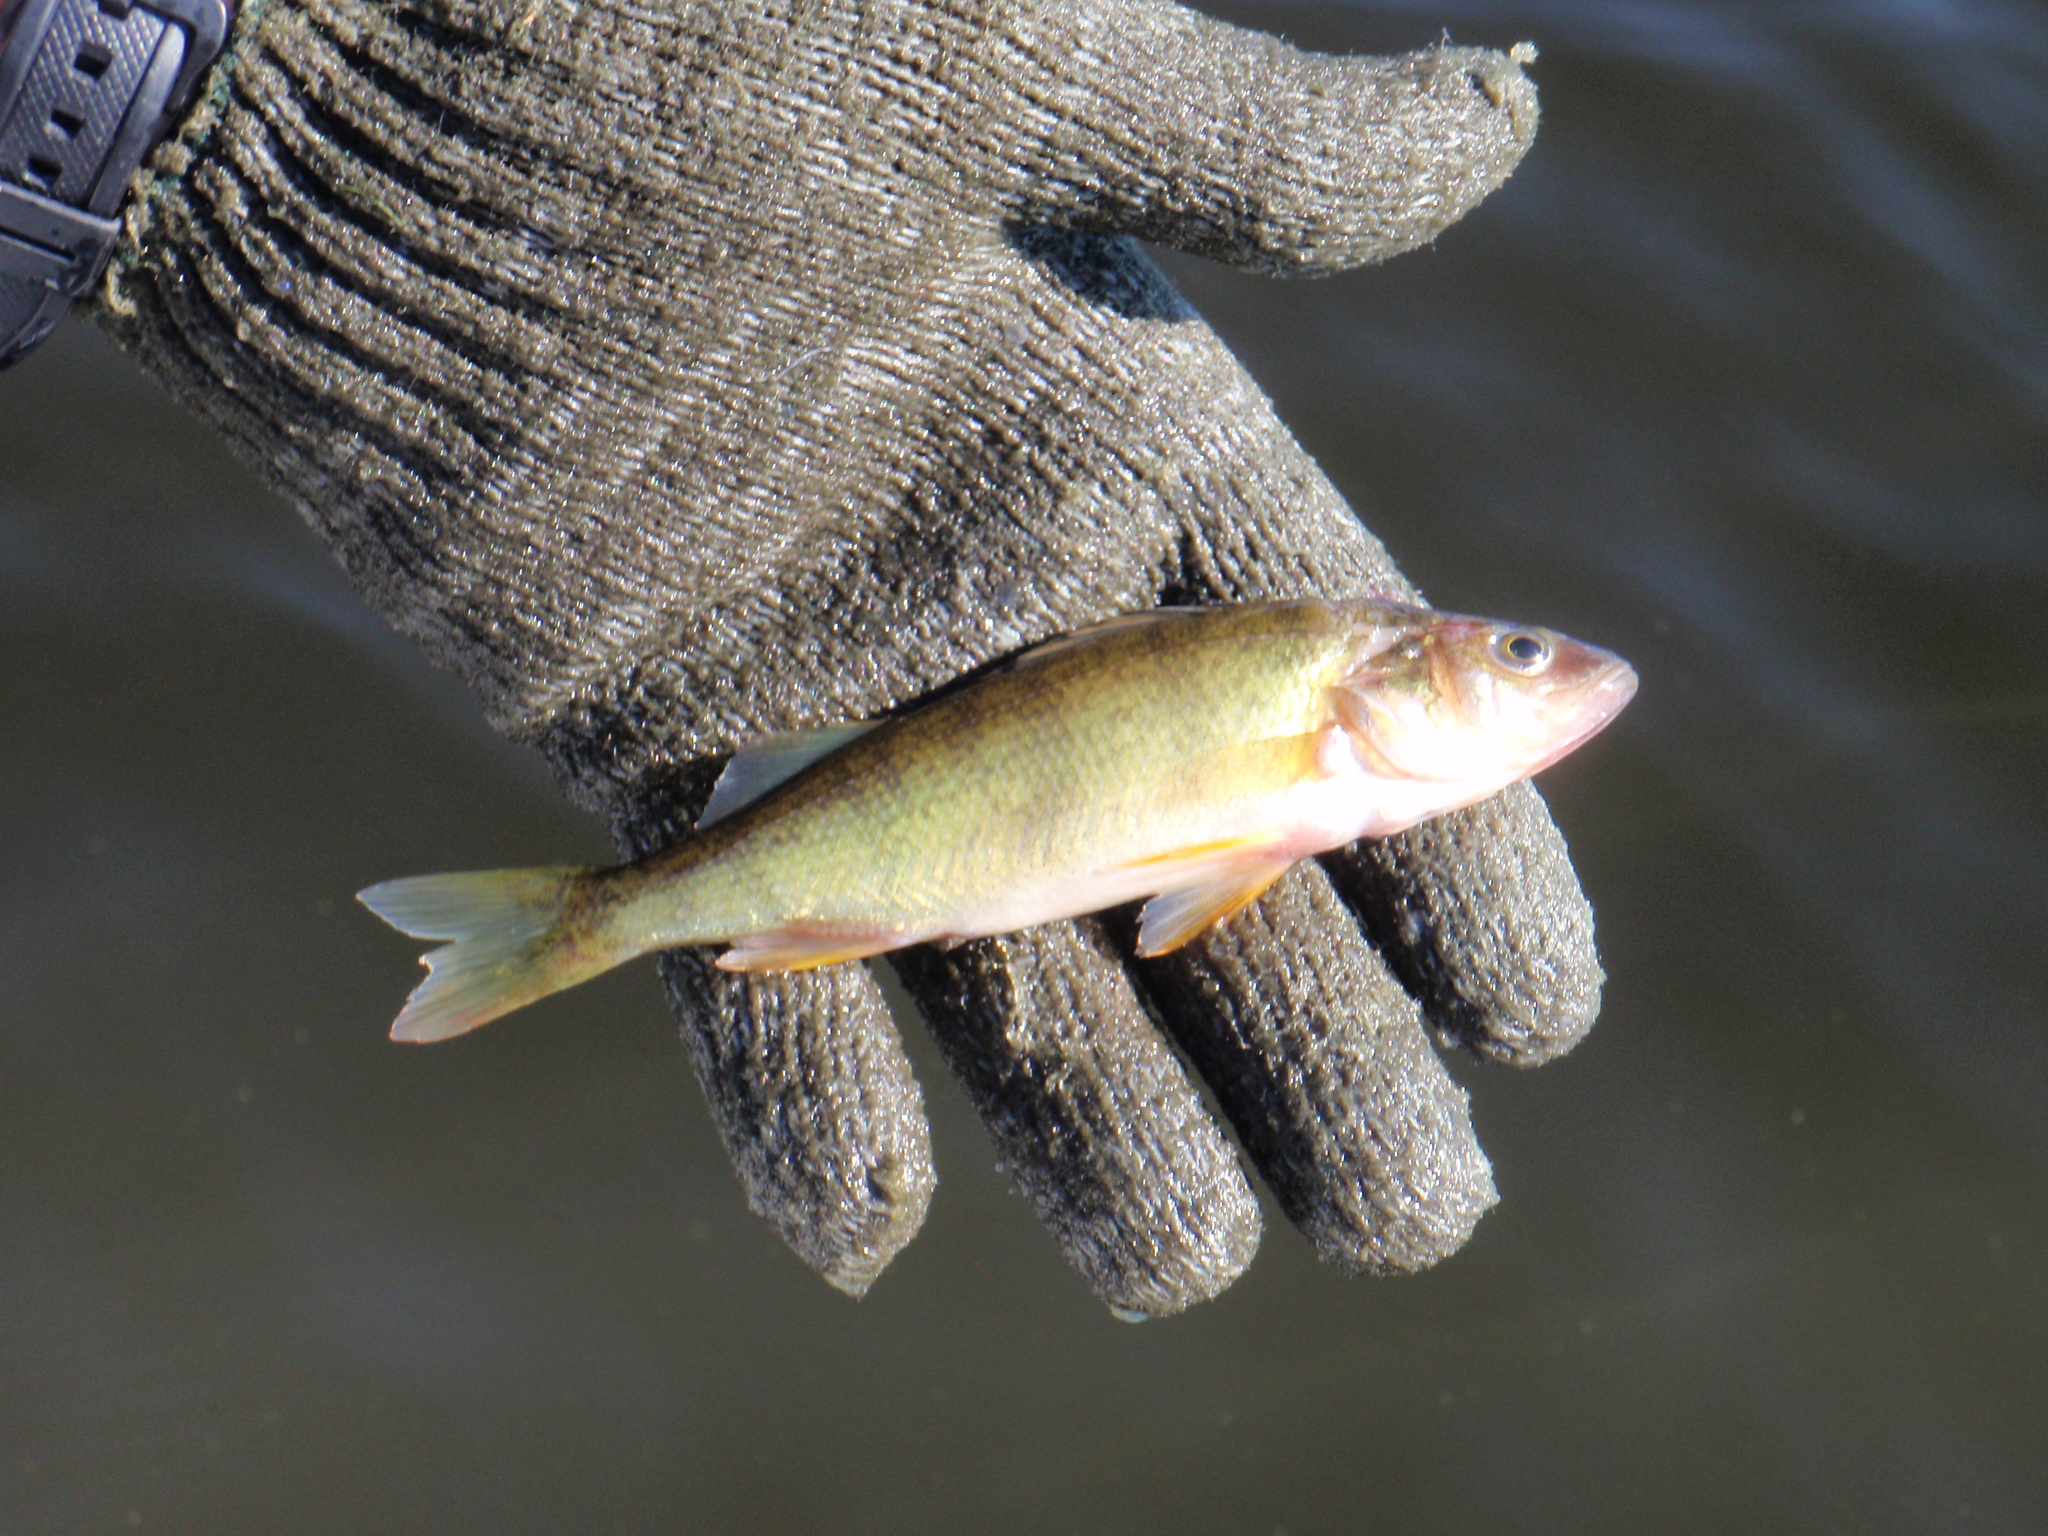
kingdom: Animalia
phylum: Chordata
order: Perciformes
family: Percidae
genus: Perca
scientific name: Perca flavescens
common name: Yellow perch
